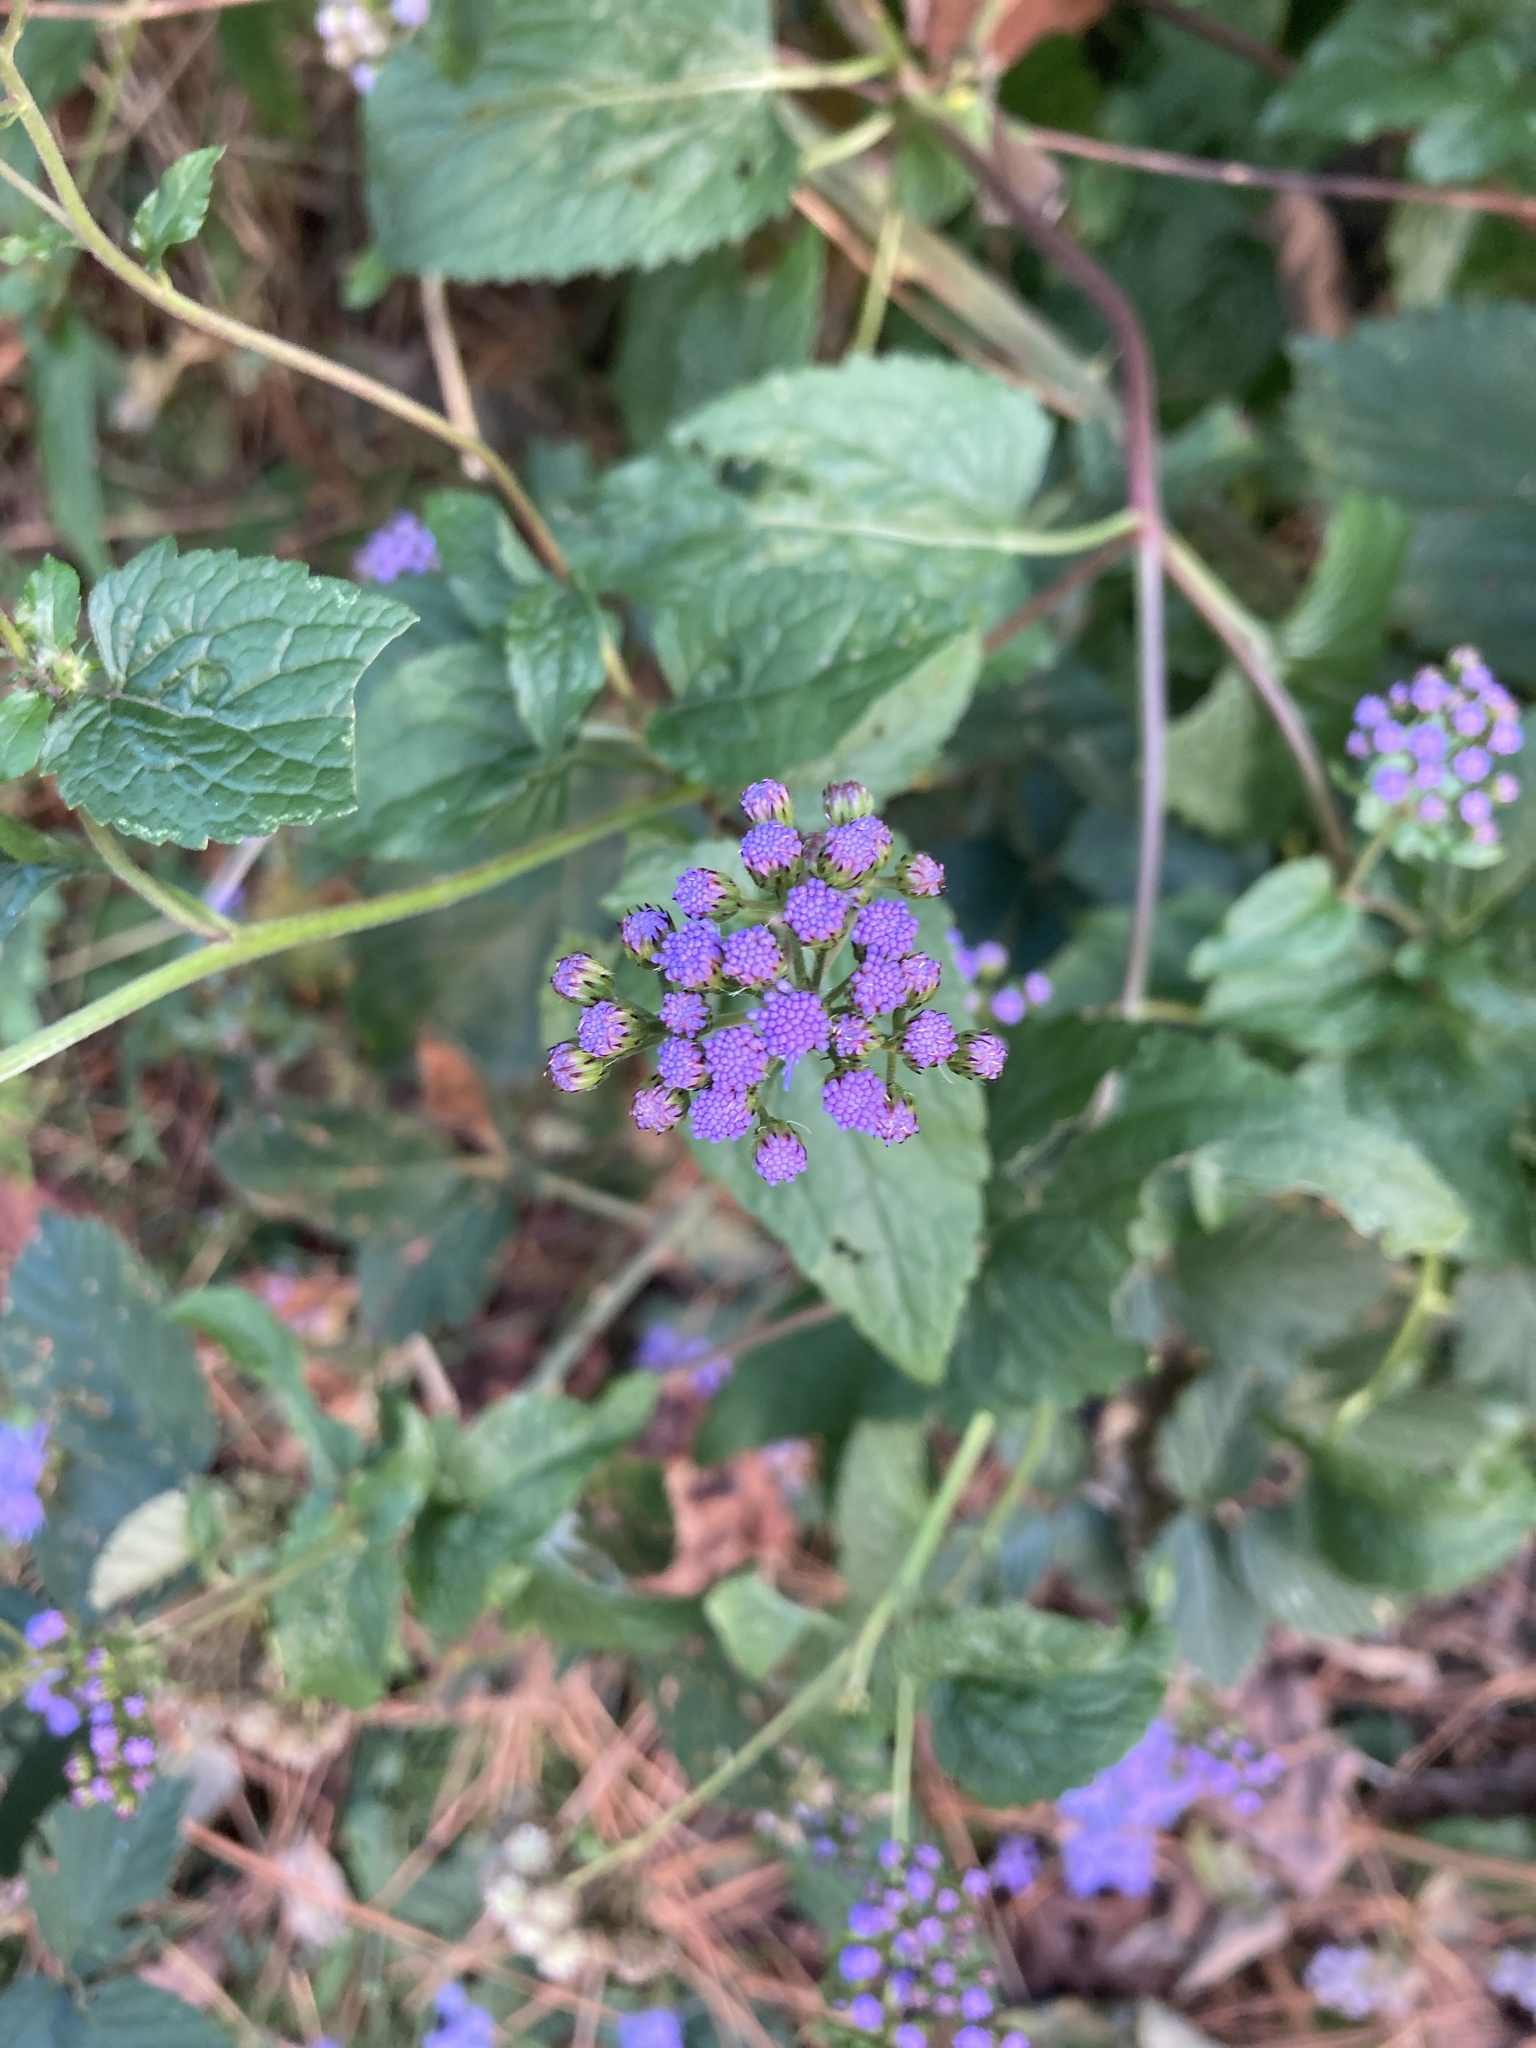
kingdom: Plantae
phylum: Tracheophyta
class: Magnoliopsida
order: Asterales
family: Asteraceae
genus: Conoclinium
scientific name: Conoclinium coelestinum
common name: Blue mistflower
